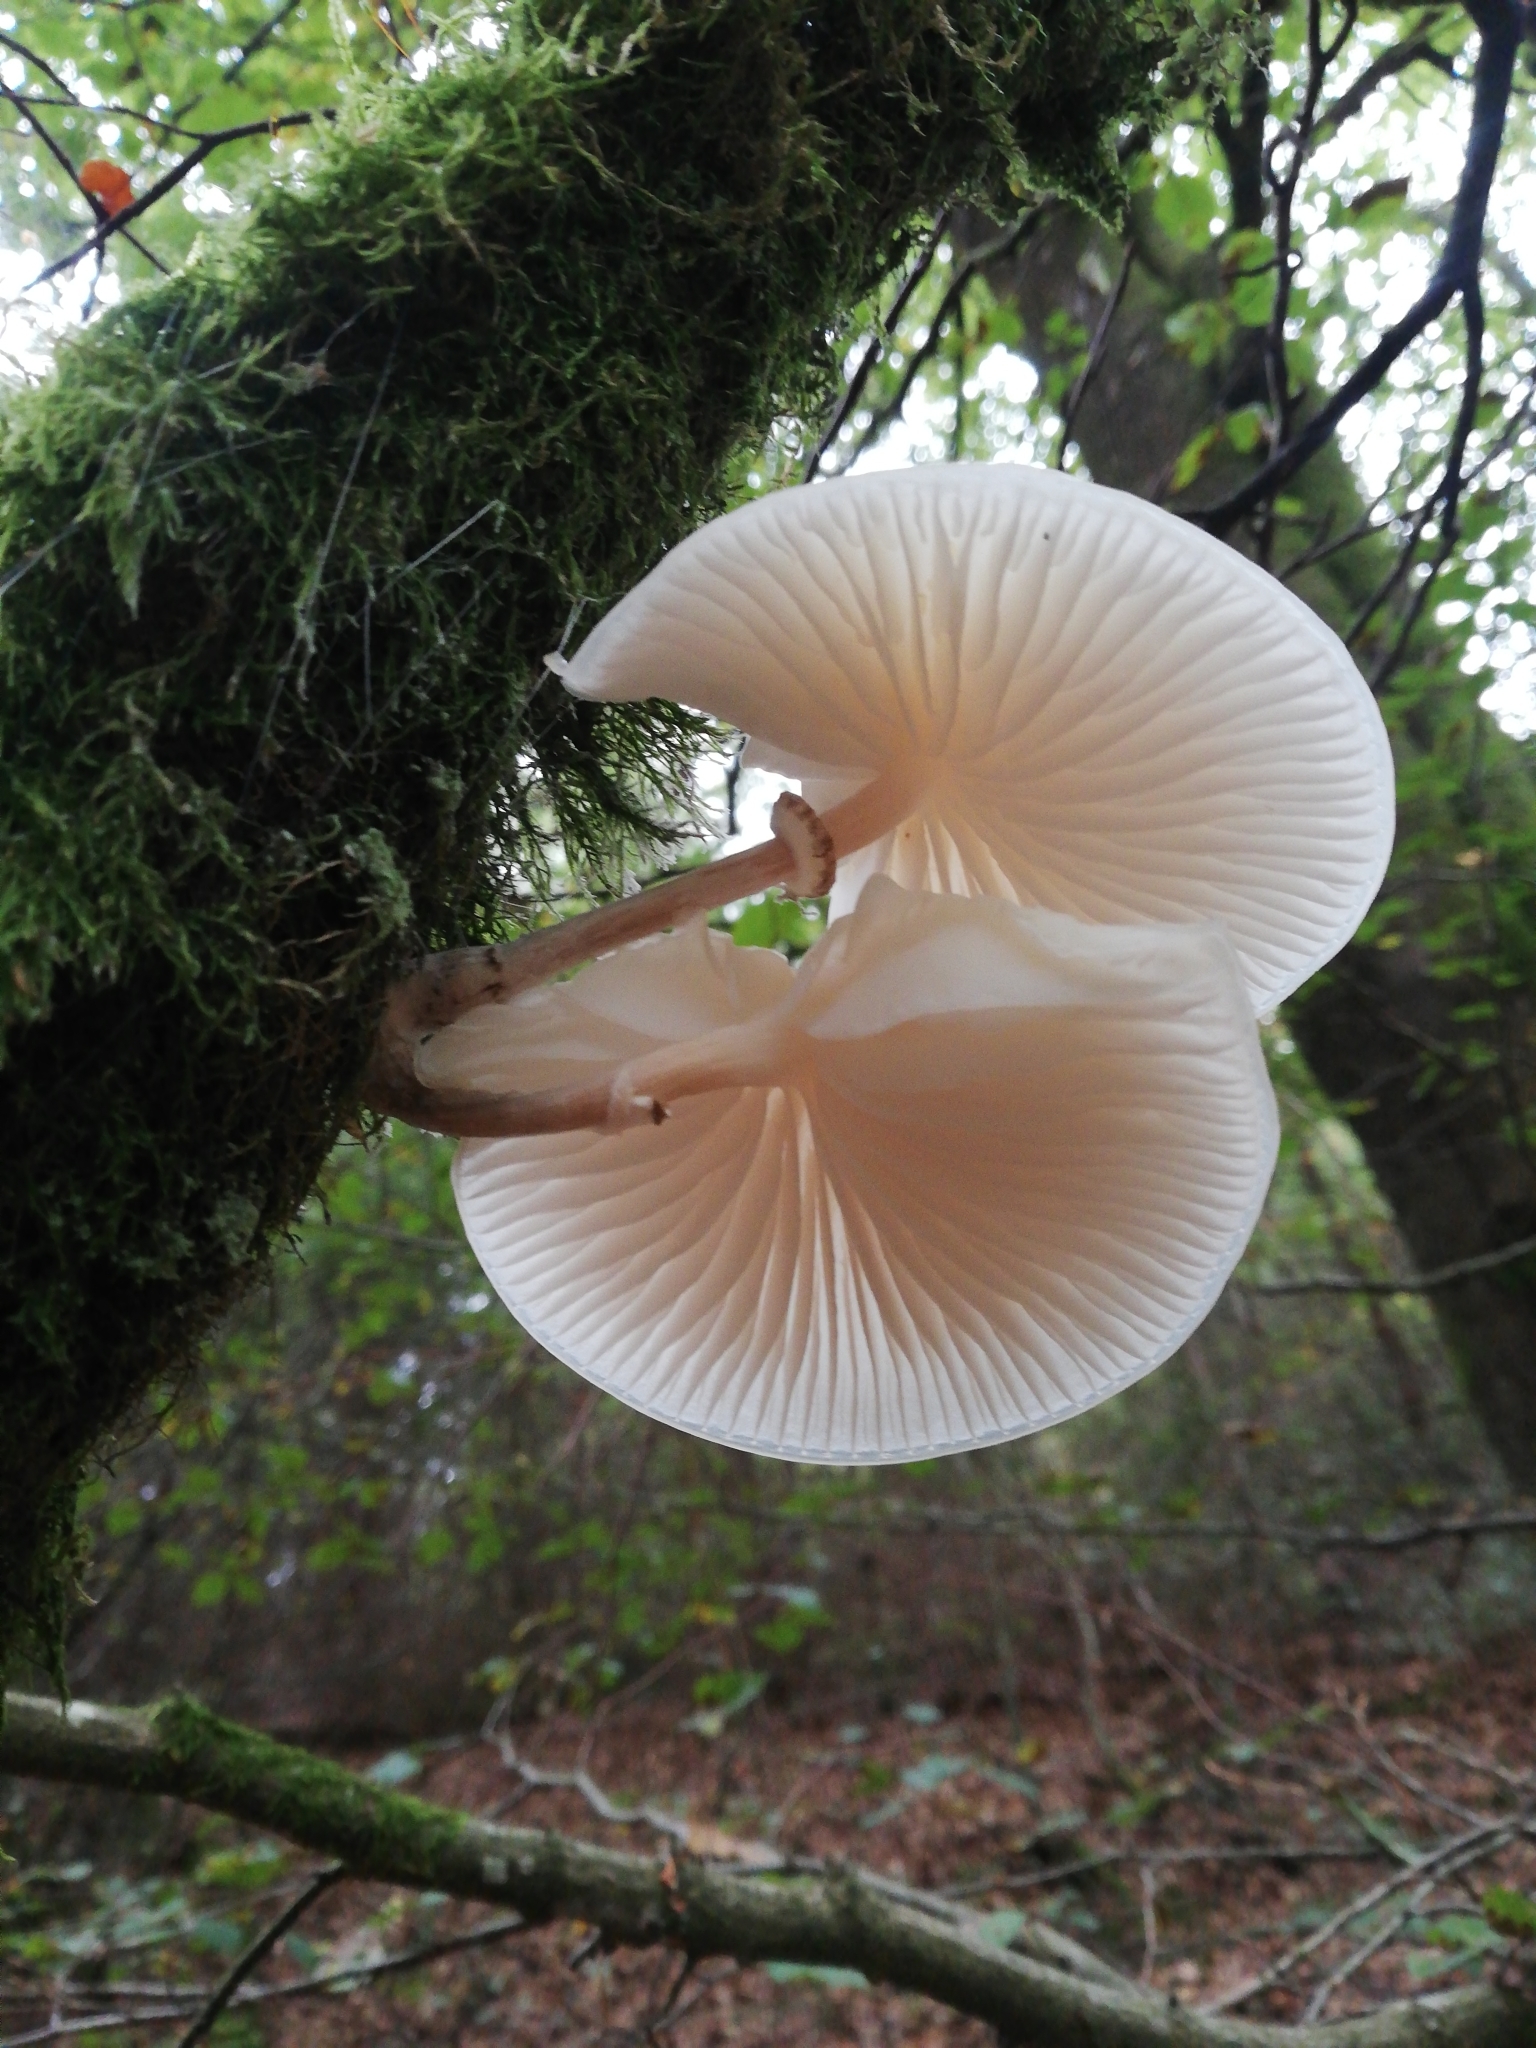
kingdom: Fungi
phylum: Basidiomycota
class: Agaricomycetes
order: Agaricales
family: Physalacriaceae
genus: Mucidula
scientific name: Mucidula mucida
